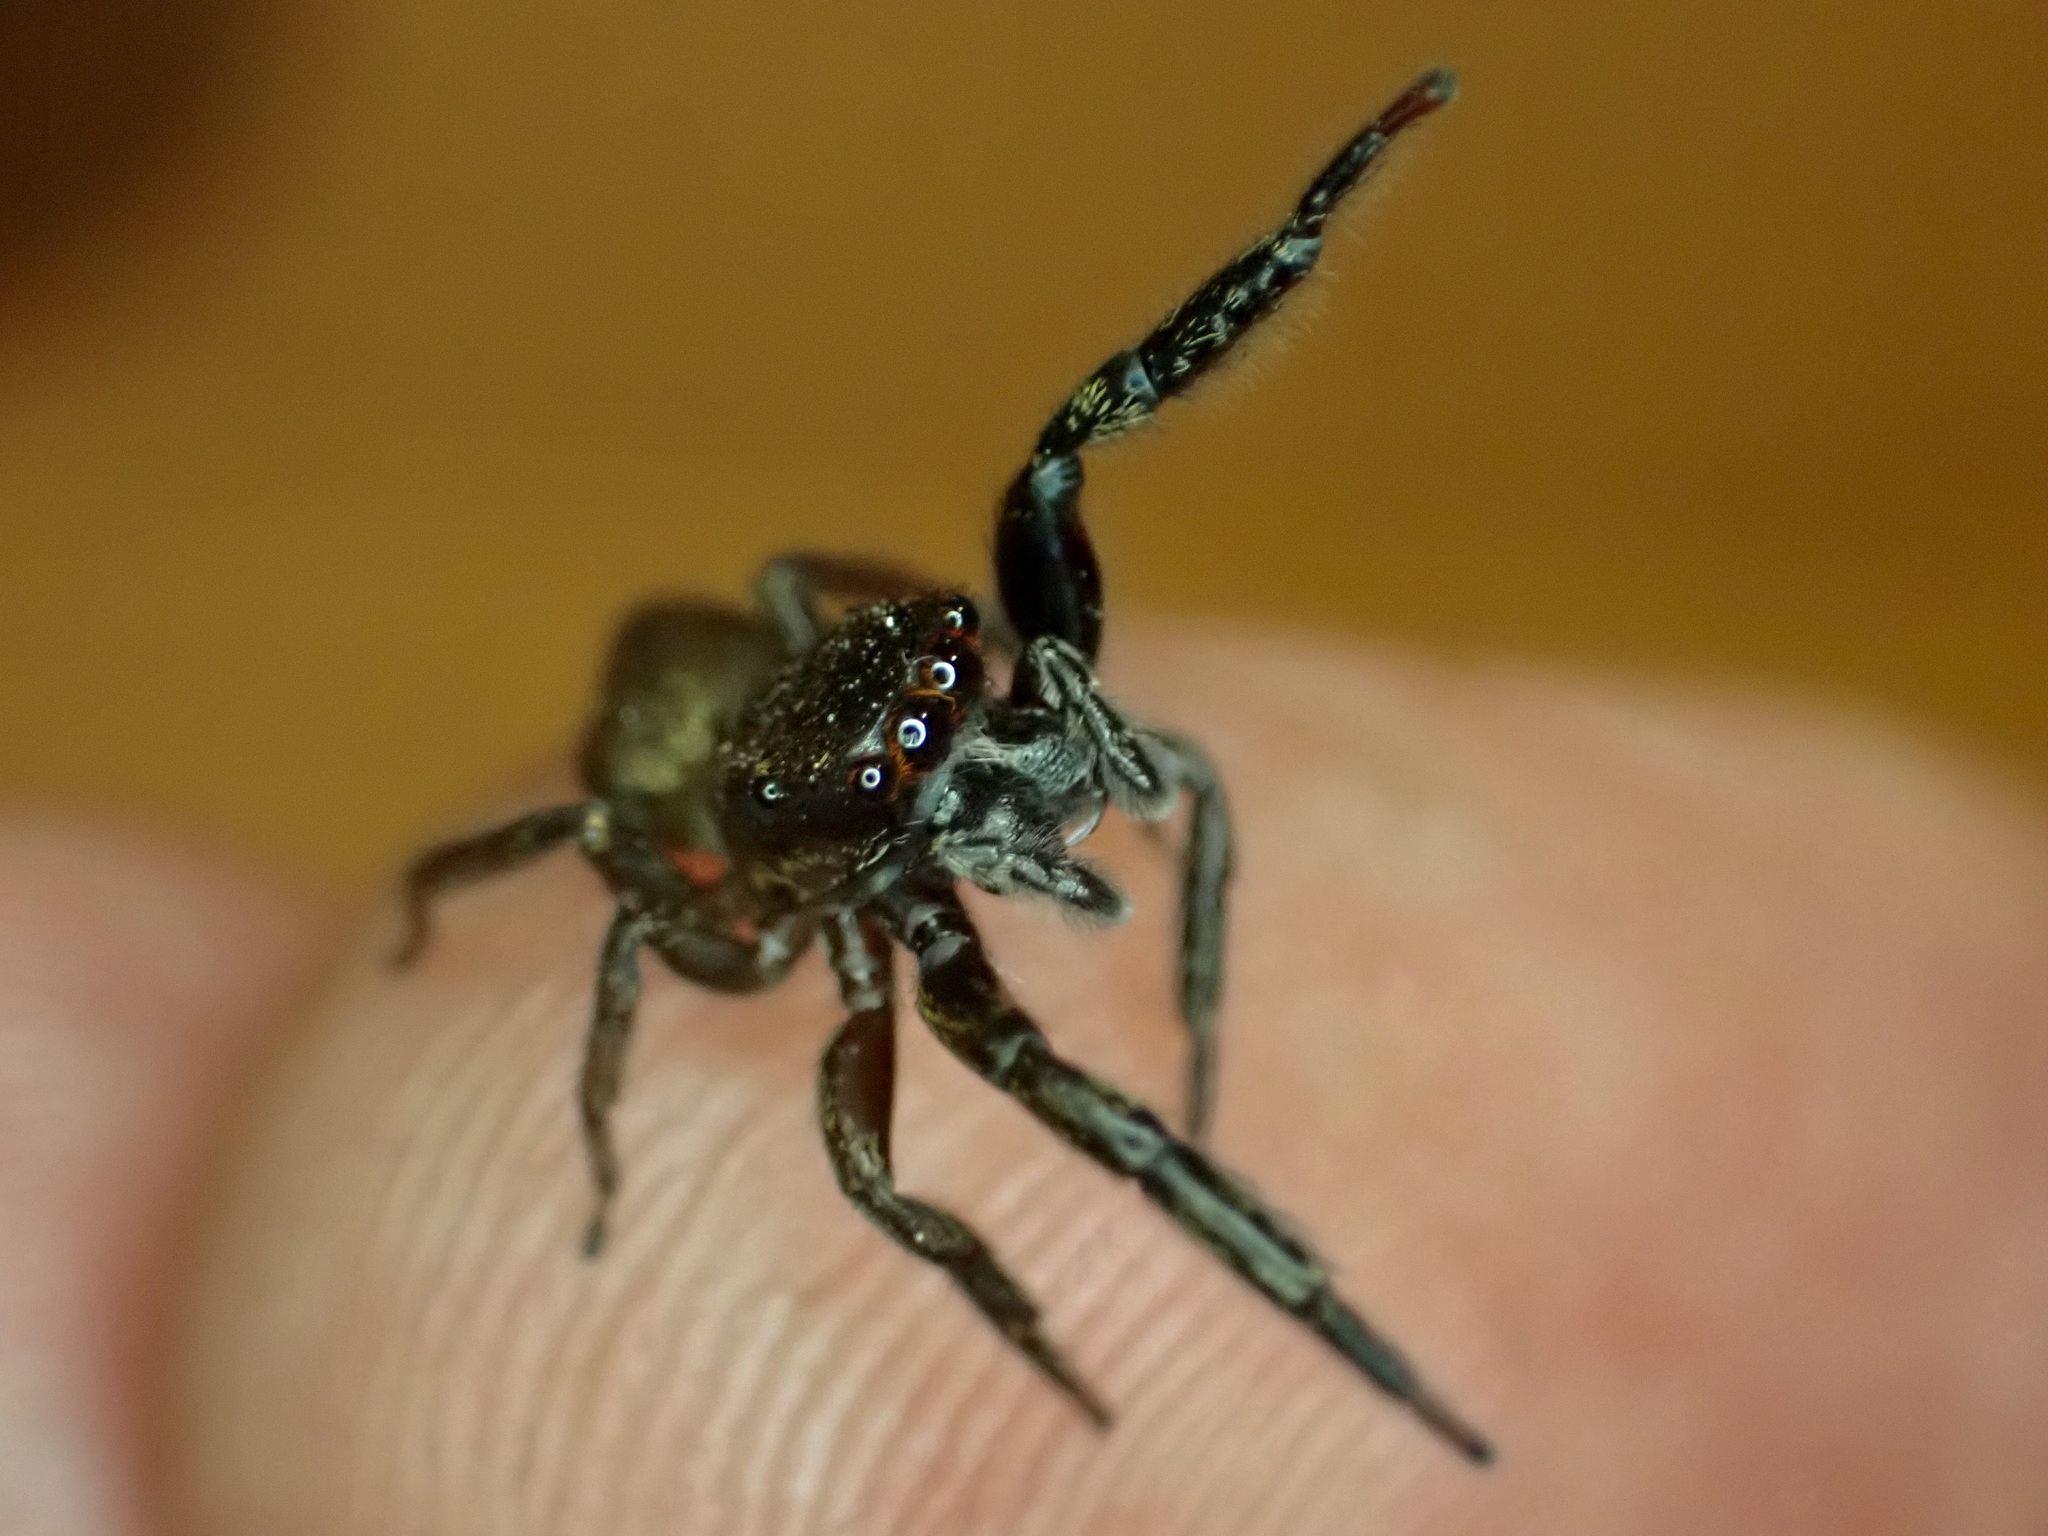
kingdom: Animalia
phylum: Arthropoda
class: Arachnida
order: Araneae
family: Salticidae
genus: Trite
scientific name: Trite auricoma
